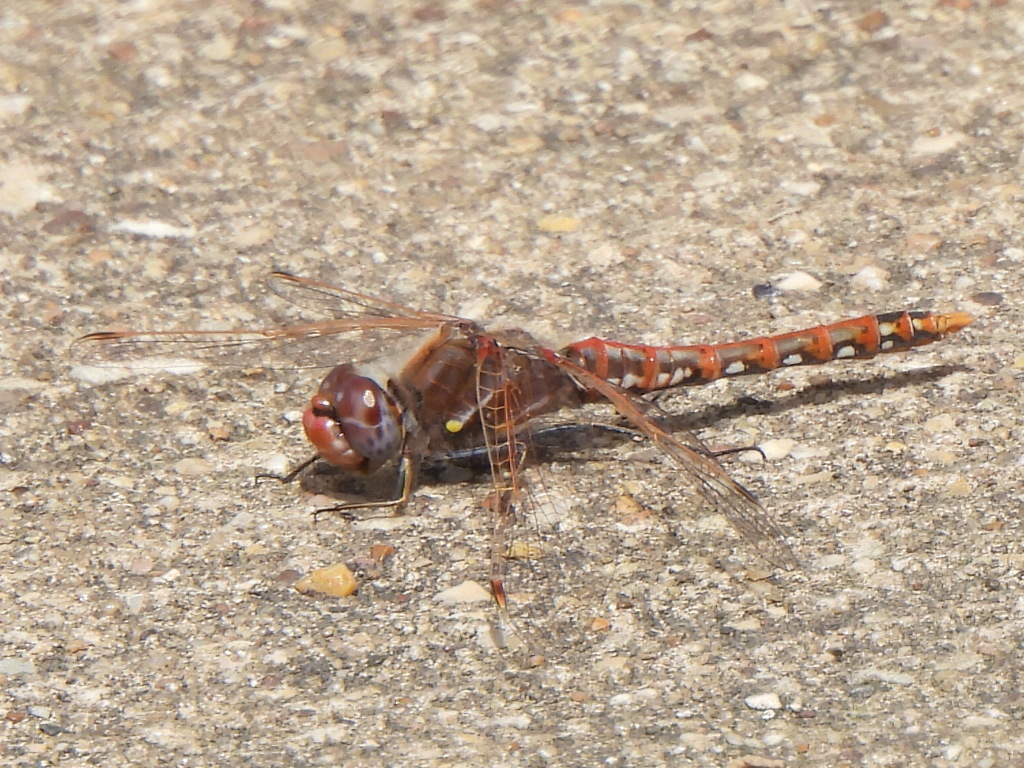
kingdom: Animalia
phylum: Arthropoda
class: Insecta
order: Odonata
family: Libellulidae
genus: Sympetrum
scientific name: Sympetrum corruptum
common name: Variegated meadowhawk
